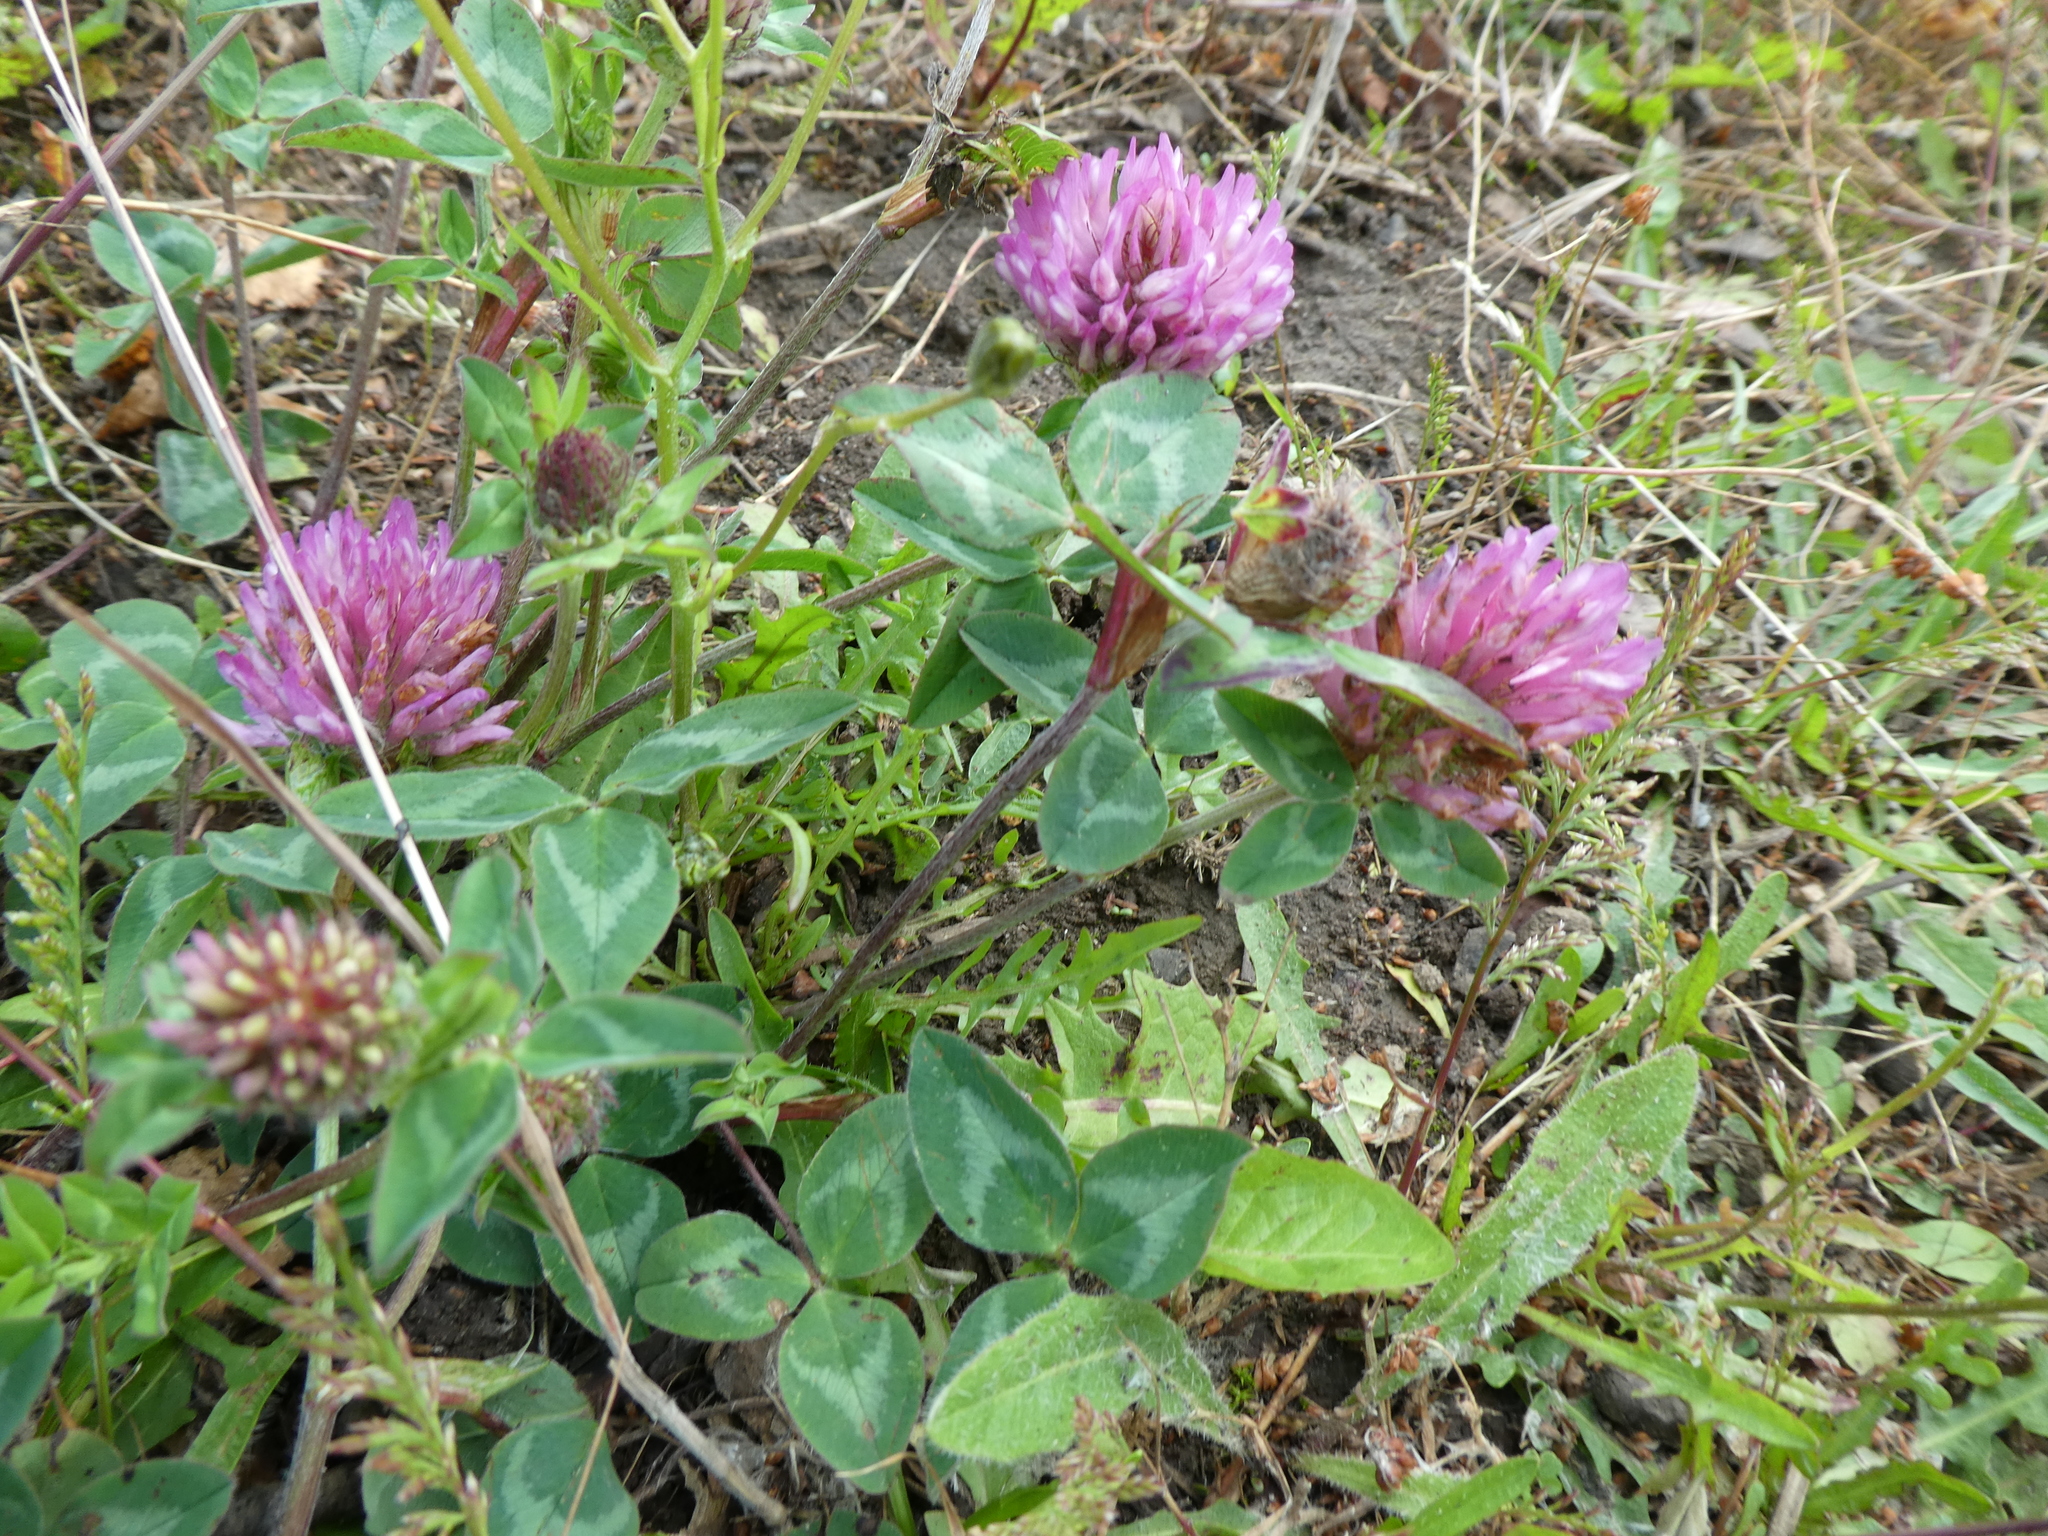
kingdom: Plantae
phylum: Tracheophyta
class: Magnoliopsida
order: Fabales
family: Fabaceae
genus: Trifolium
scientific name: Trifolium pratense
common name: Red clover
